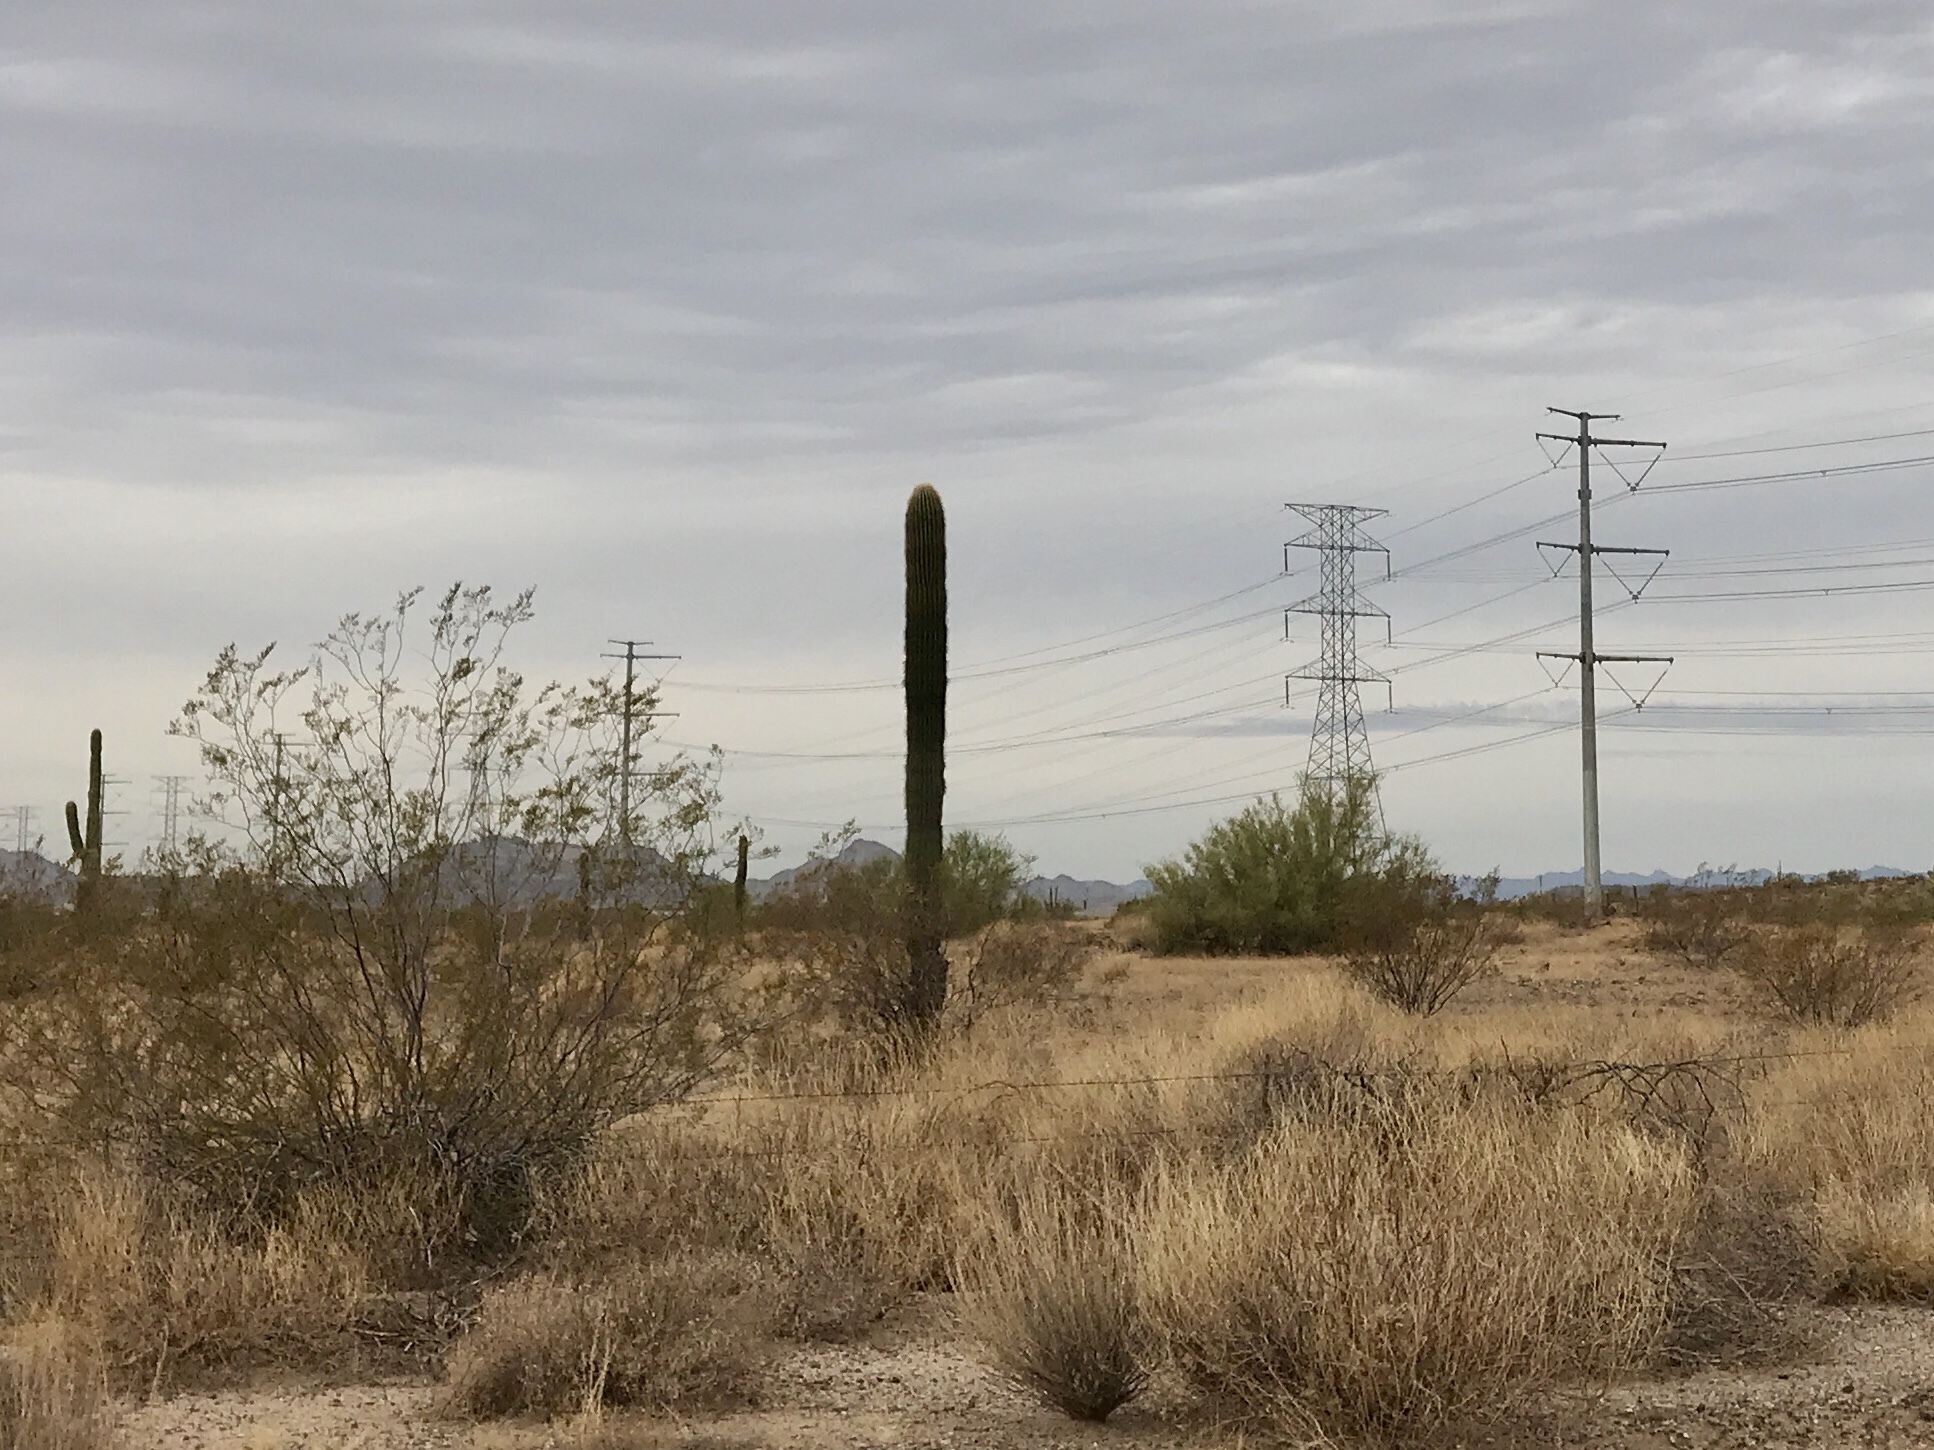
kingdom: Plantae
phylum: Tracheophyta
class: Magnoliopsida
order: Caryophyllales
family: Cactaceae
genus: Carnegiea
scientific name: Carnegiea gigantea
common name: Saguaro
